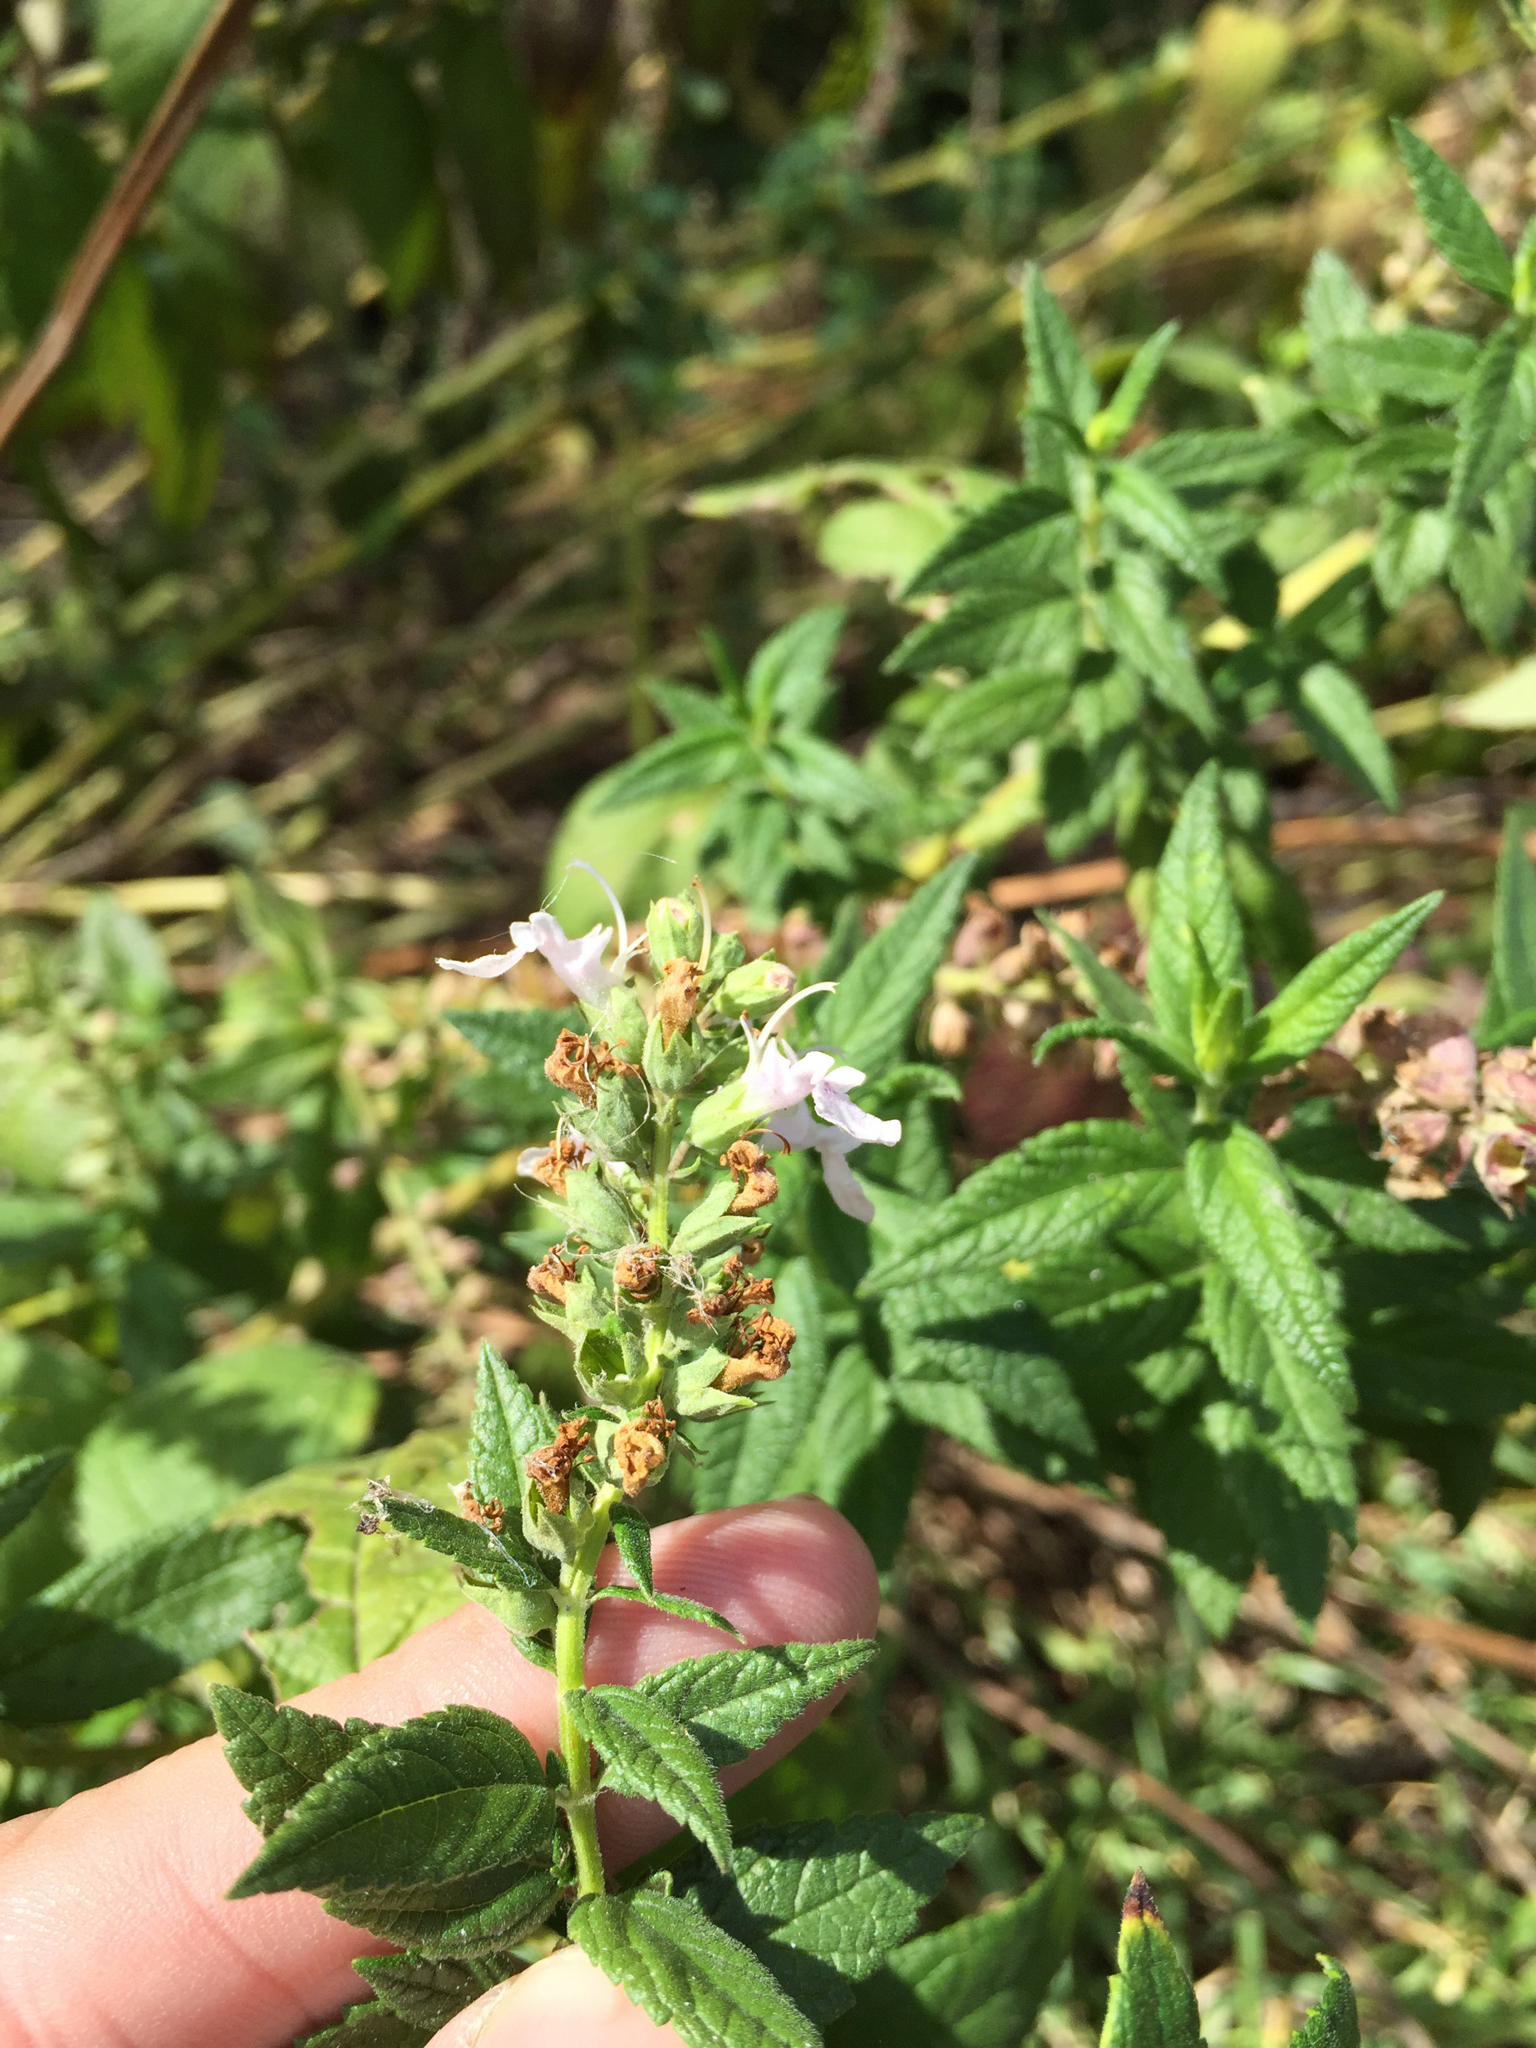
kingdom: Plantae
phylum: Tracheophyta
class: Magnoliopsida
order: Lamiales
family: Lamiaceae
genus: Teucrium
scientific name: Teucrium canadense
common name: American germander
